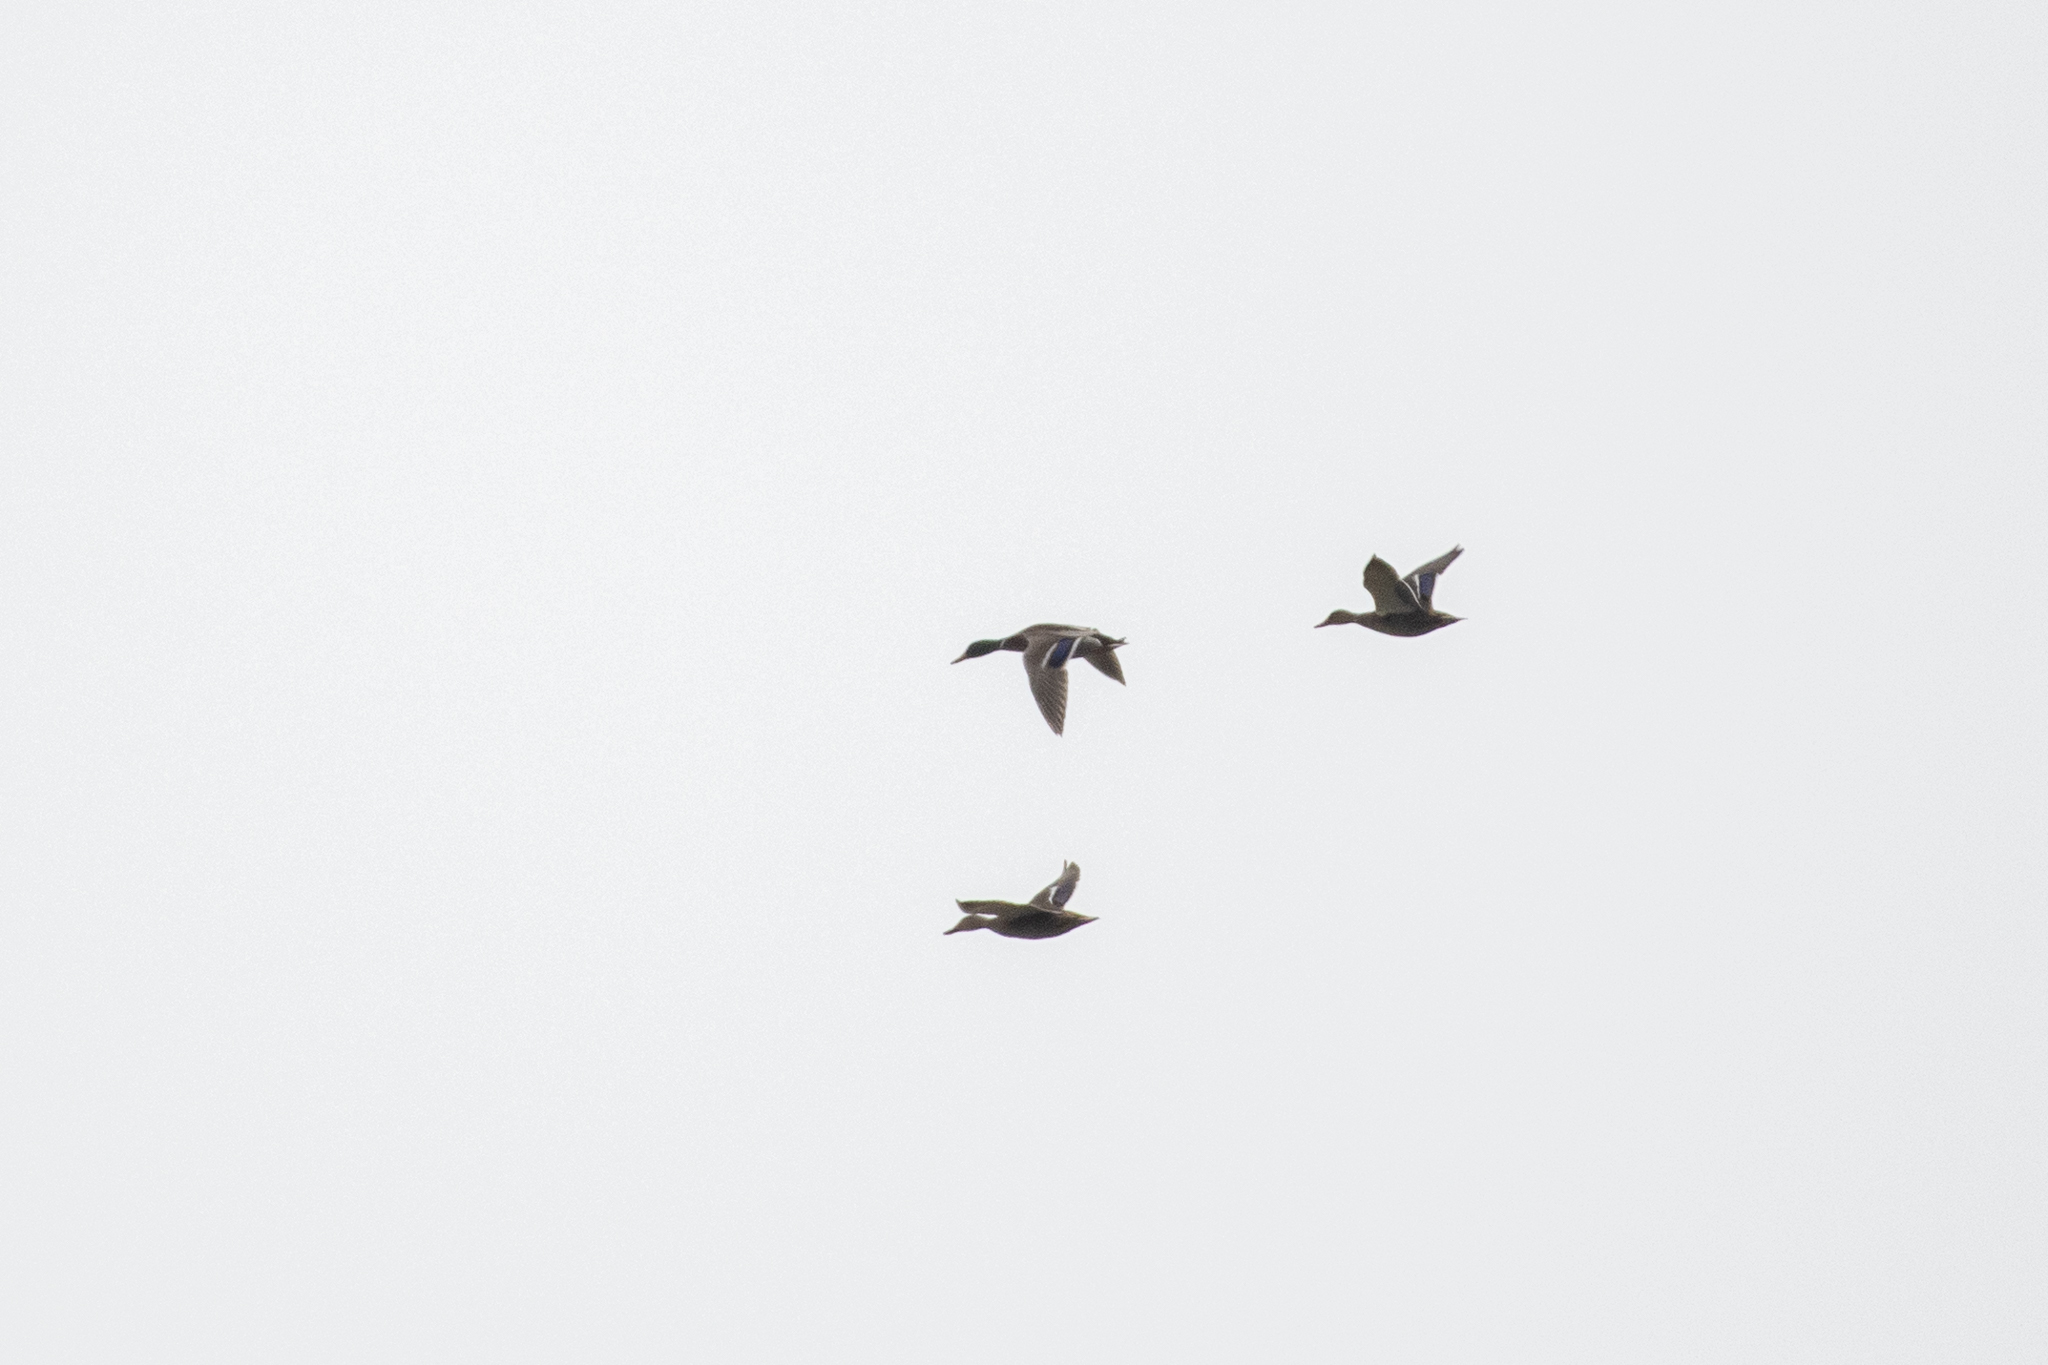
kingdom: Animalia
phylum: Chordata
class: Aves
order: Anseriformes
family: Anatidae
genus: Anas
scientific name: Anas platyrhynchos
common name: Mallard
